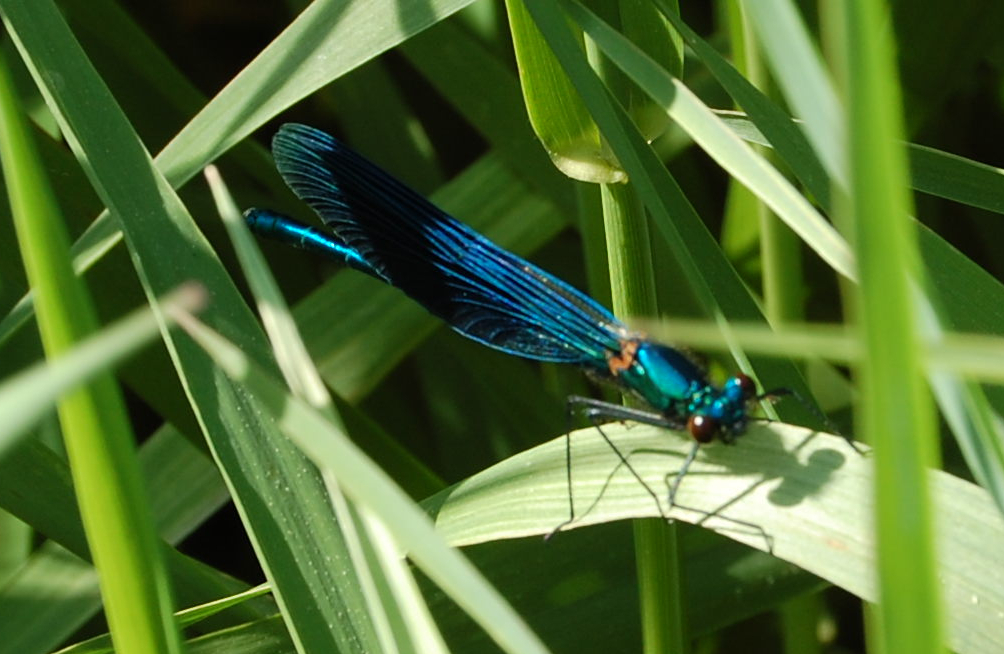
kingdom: Animalia
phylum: Arthropoda
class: Insecta
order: Odonata
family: Calopterygidae
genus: Calopteryx
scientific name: Calopteryx splendens
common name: Banded demoiselle
